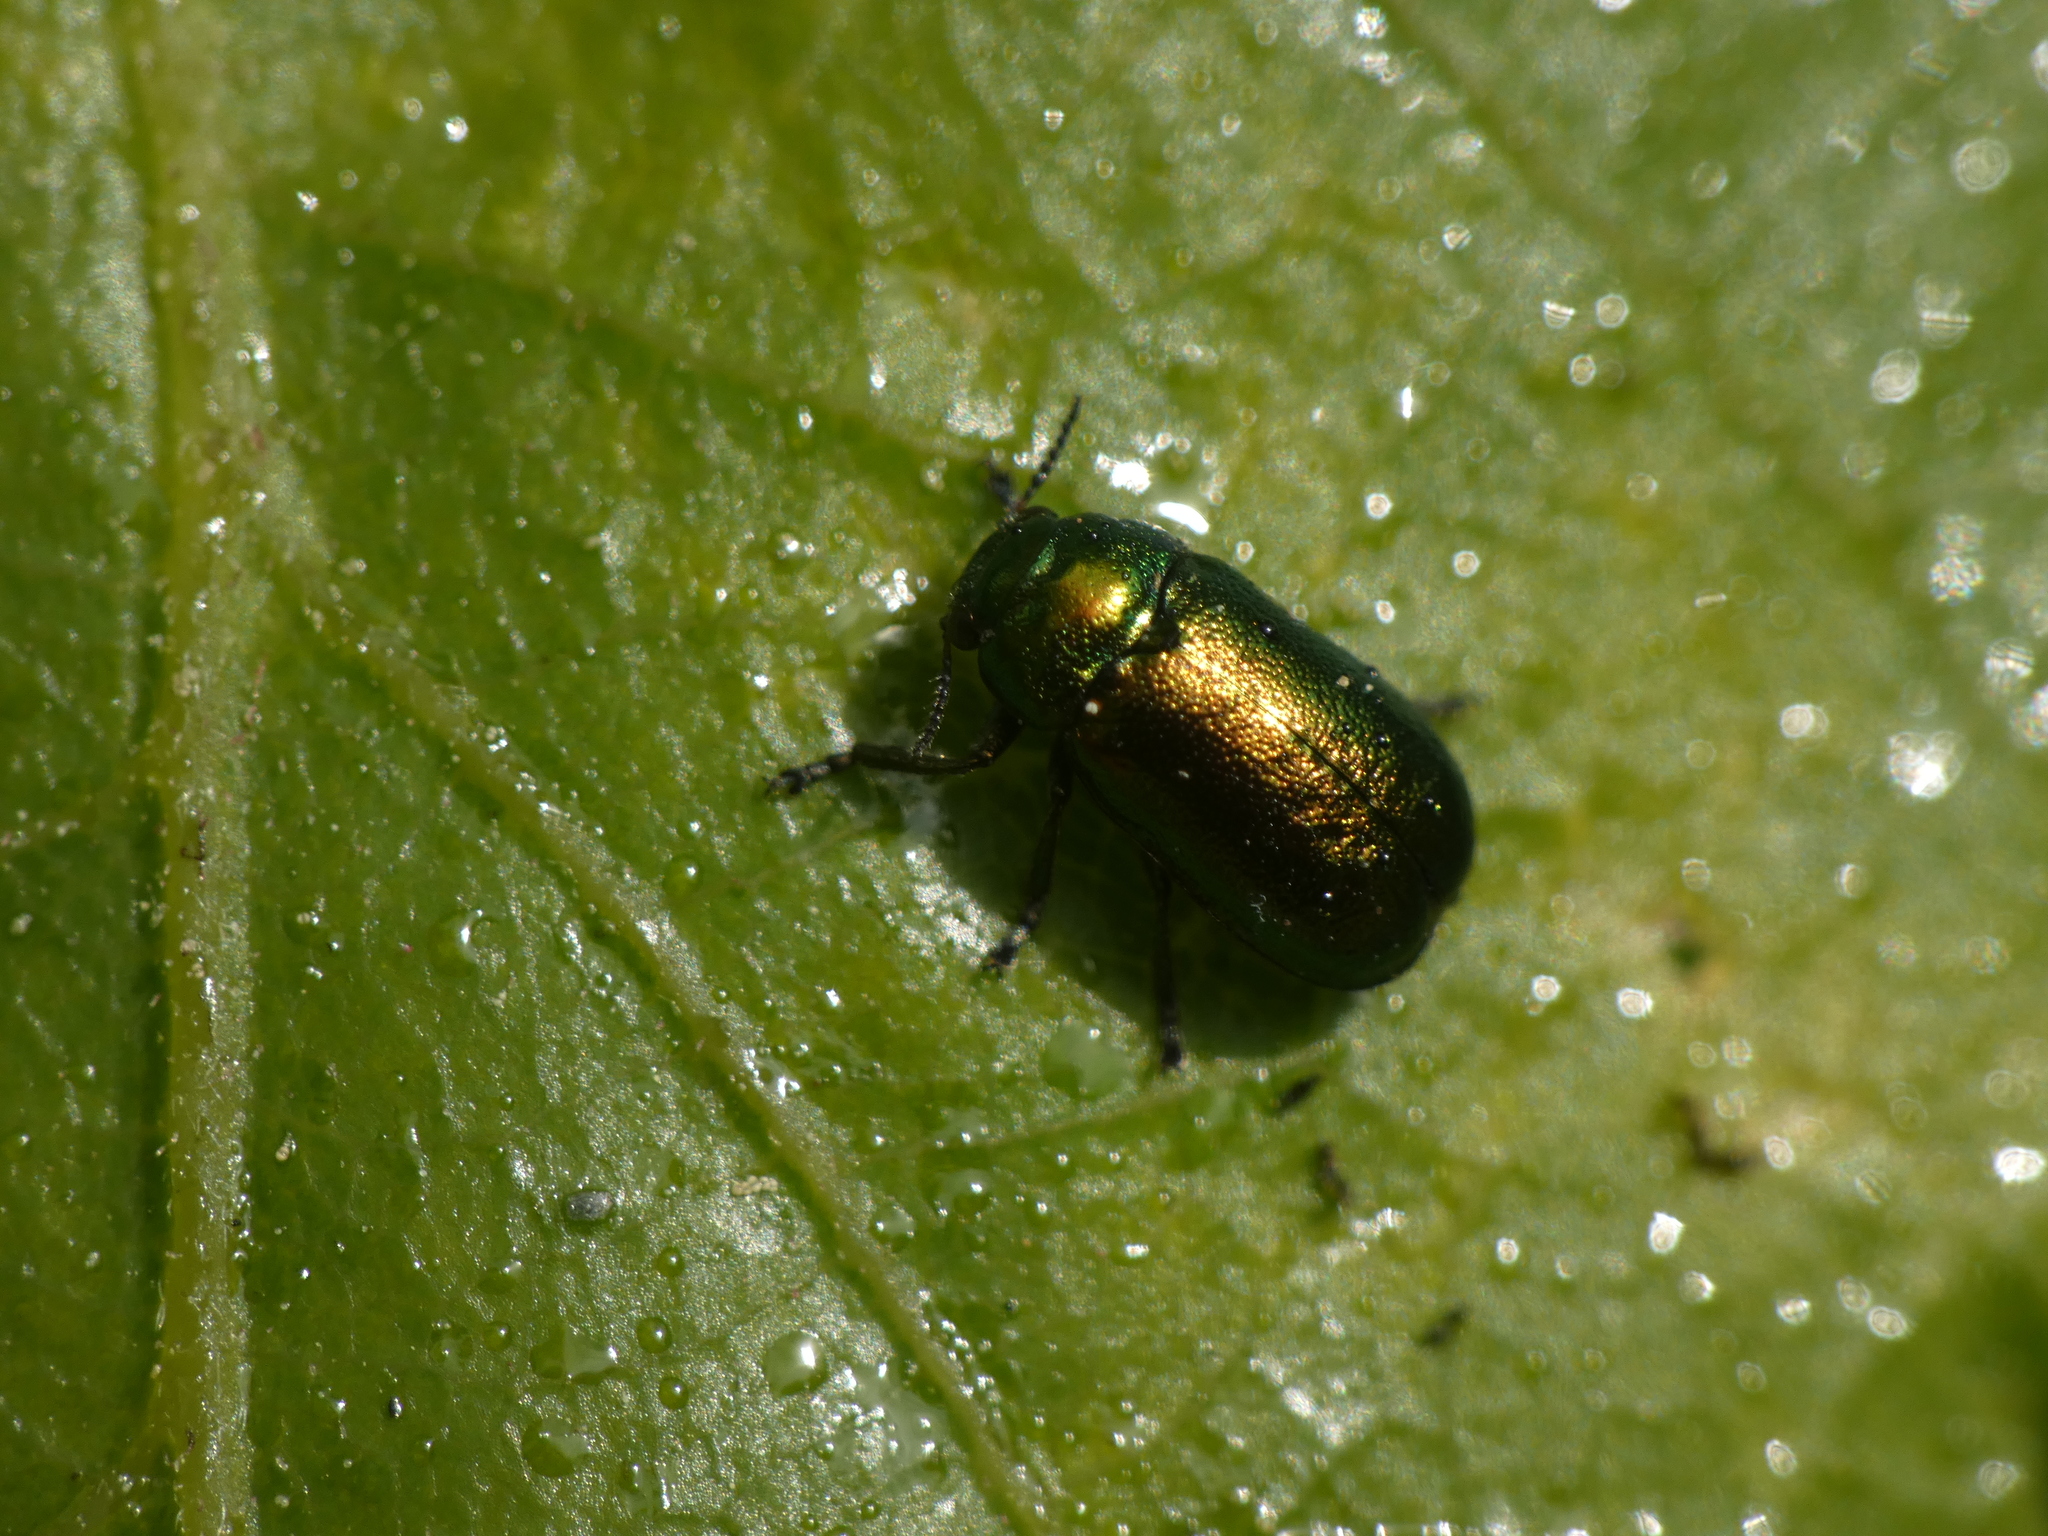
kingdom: Animalia
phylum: Arthropoda
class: Insecta
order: Coleoptera
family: Chrysomelidae
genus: Smaragdina
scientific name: Smaragdina concolor
